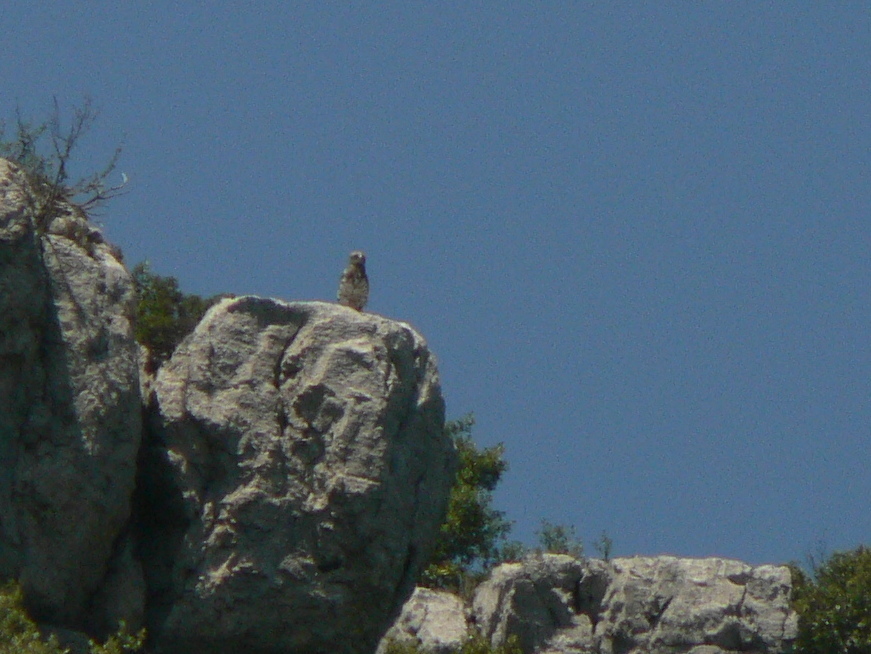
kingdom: Animalia
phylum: Chordata
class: Aves
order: Accipitriformes
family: Accipitridae
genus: Circaetus
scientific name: Circaetus gallicus
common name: Short-toed snake eagle
